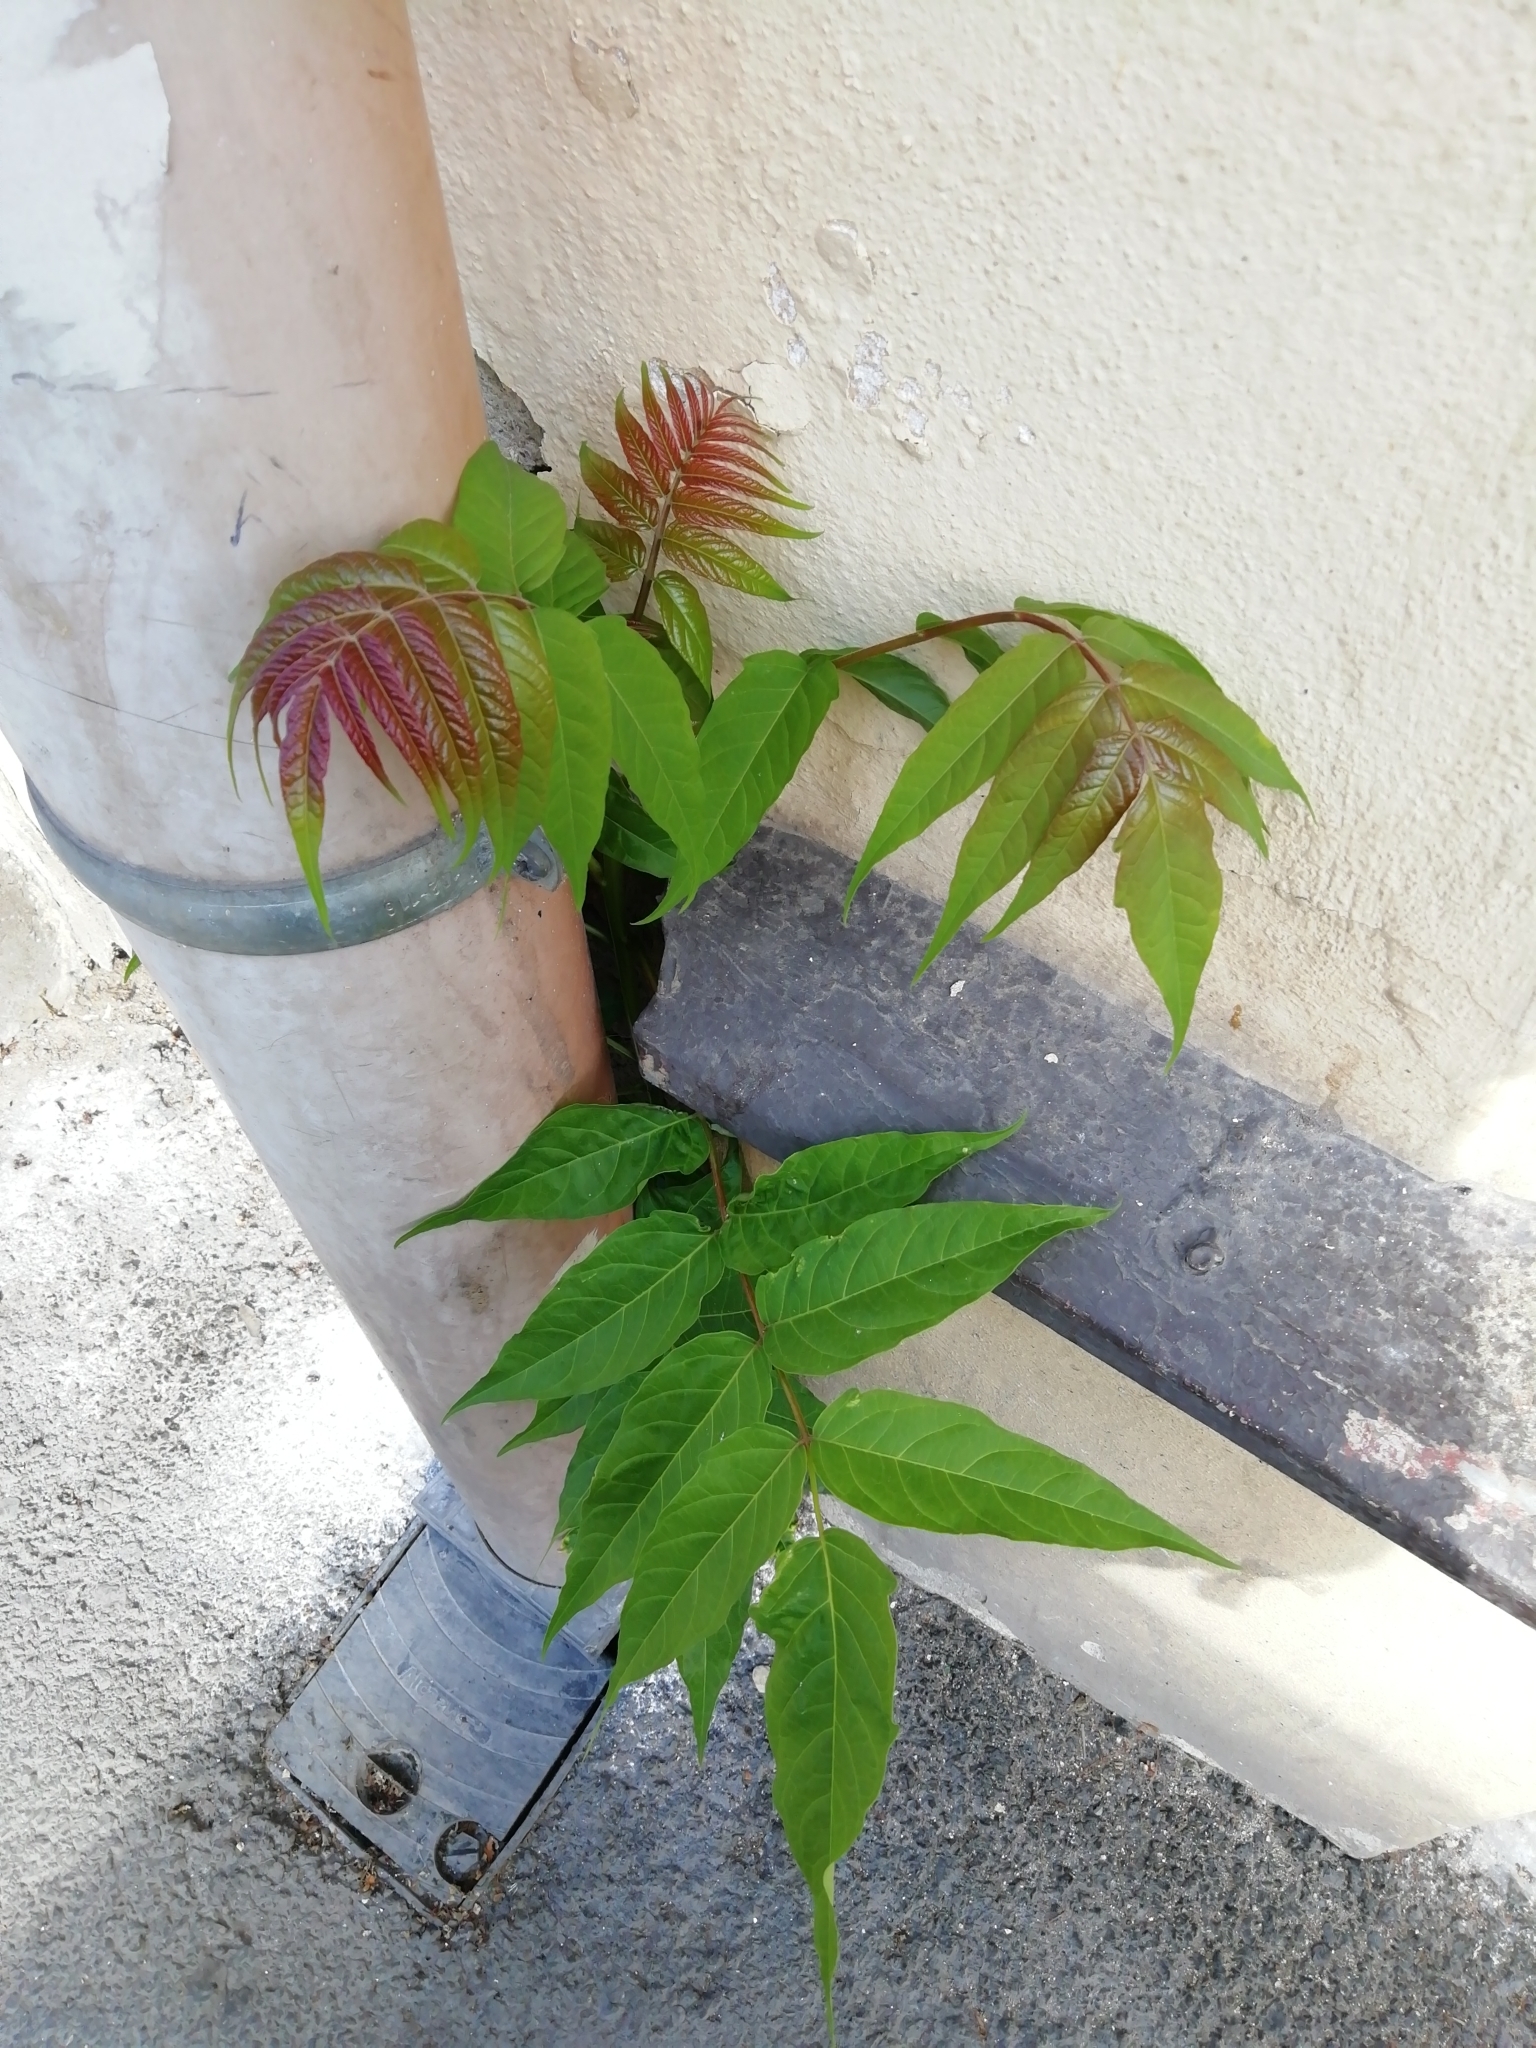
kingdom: Plantae
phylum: Tracheophyta
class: Magnoliopsida
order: Sapindales
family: Simaroubaceae
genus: Ailanthus
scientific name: Ailanthus altissima
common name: Tree-of-heaven
